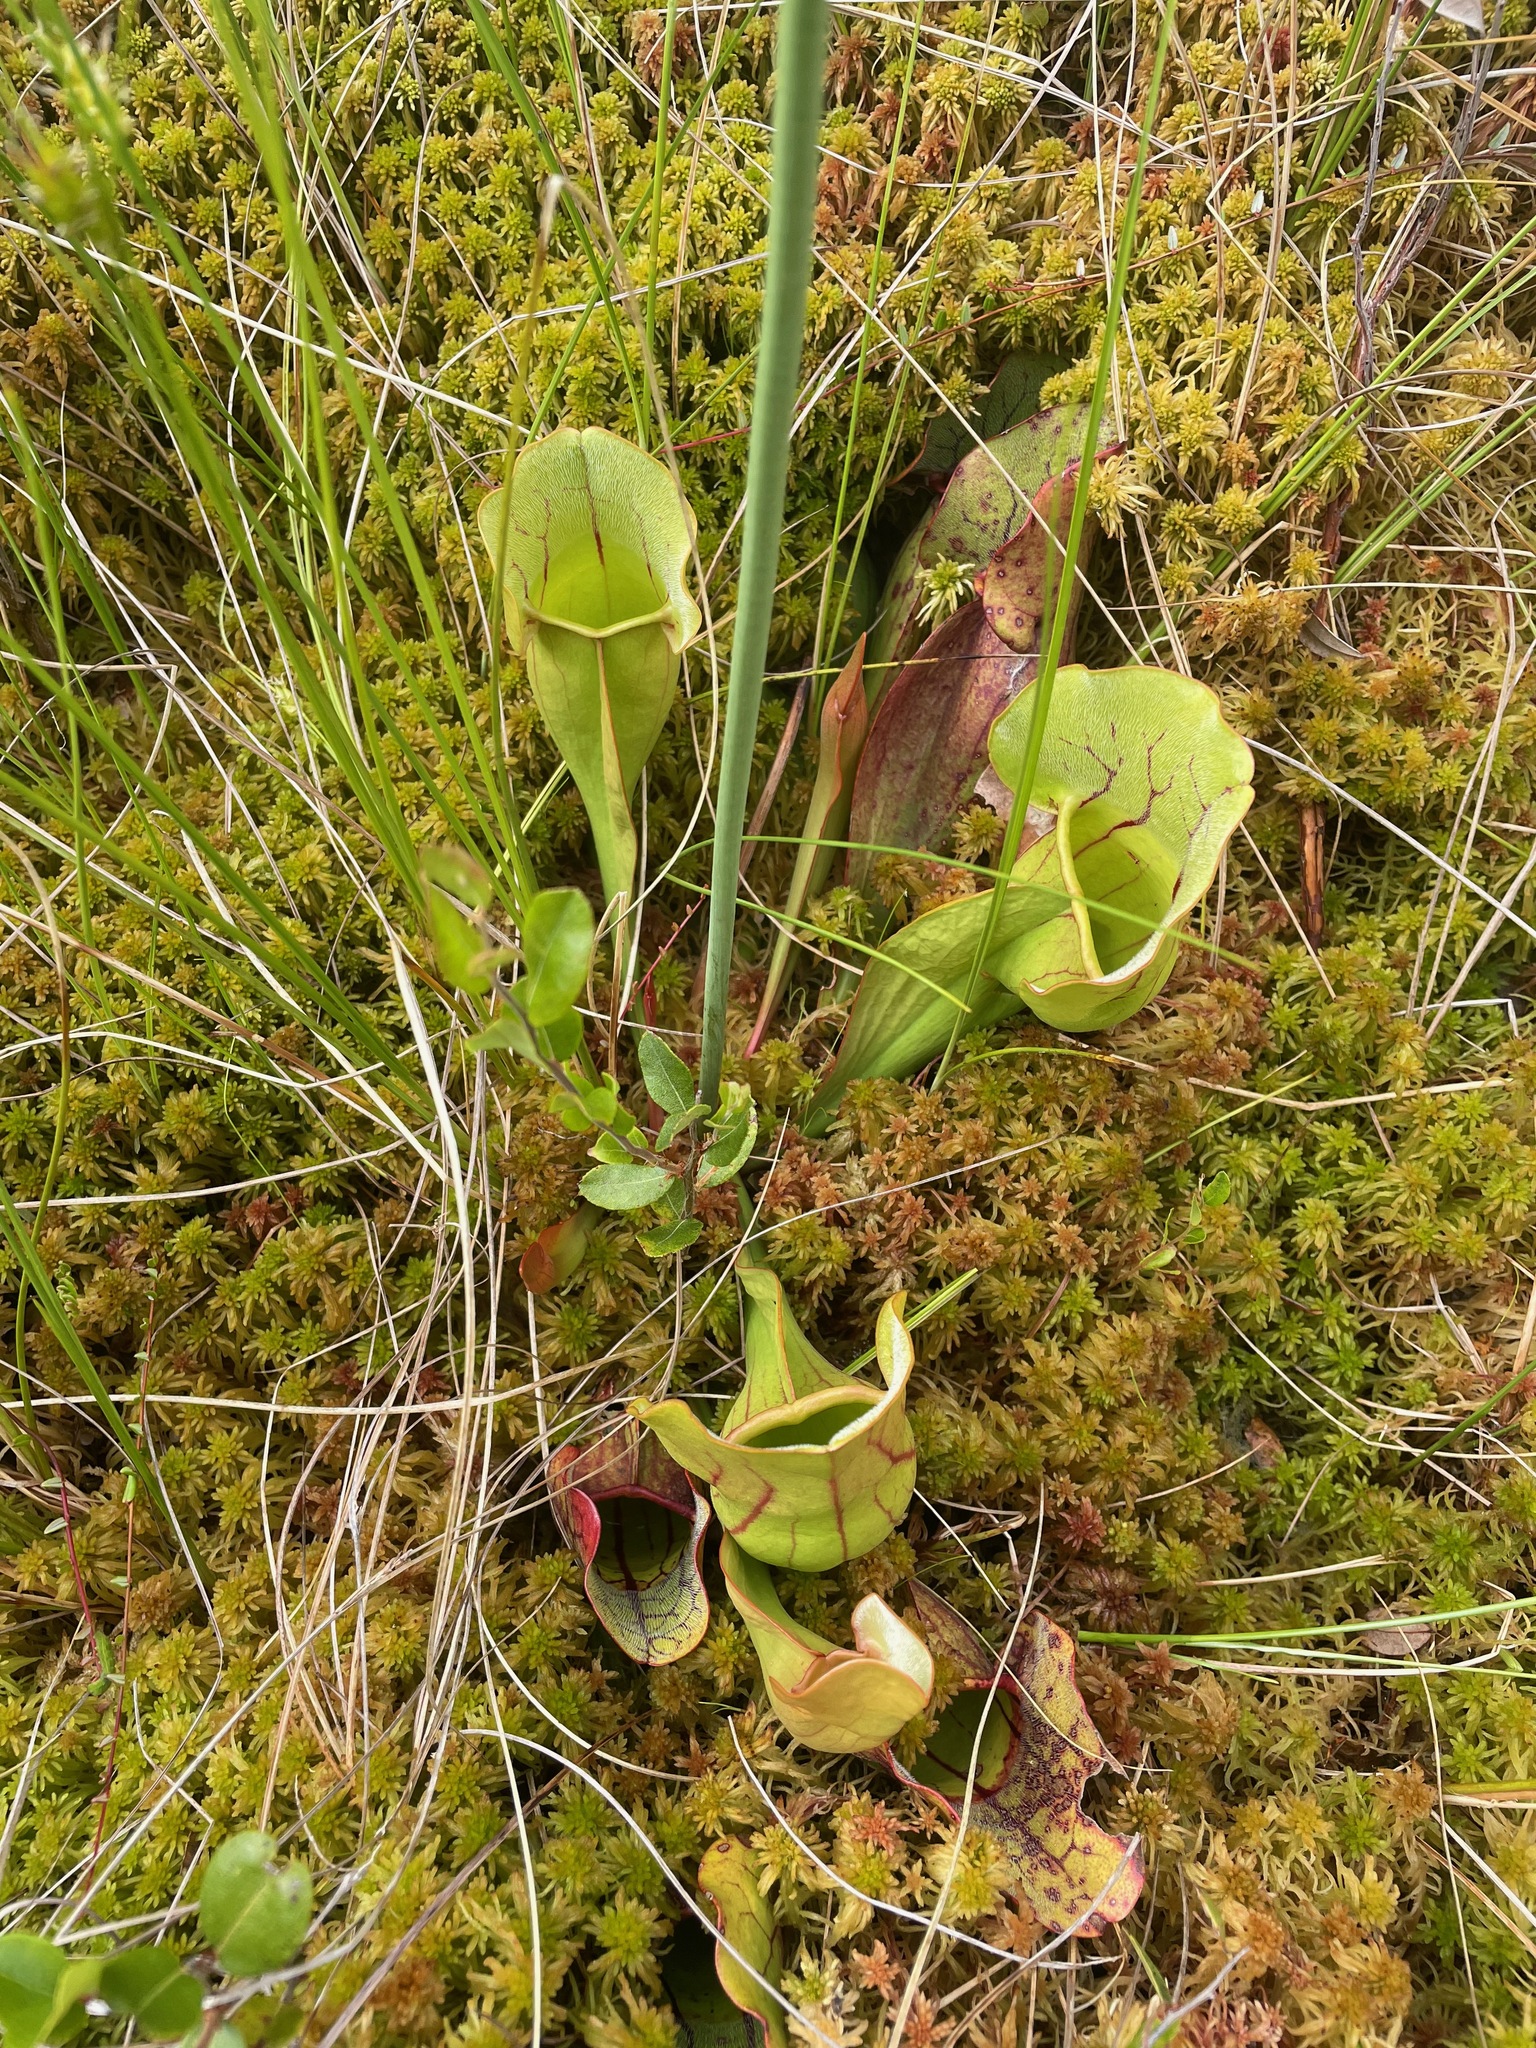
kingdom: Plantae
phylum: Tracheophyta
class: Magnoliopsida
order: Ericales
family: Sarraceniaceae
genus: Sarracenia
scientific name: Sarracenia purpurea
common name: Pitcherplant
